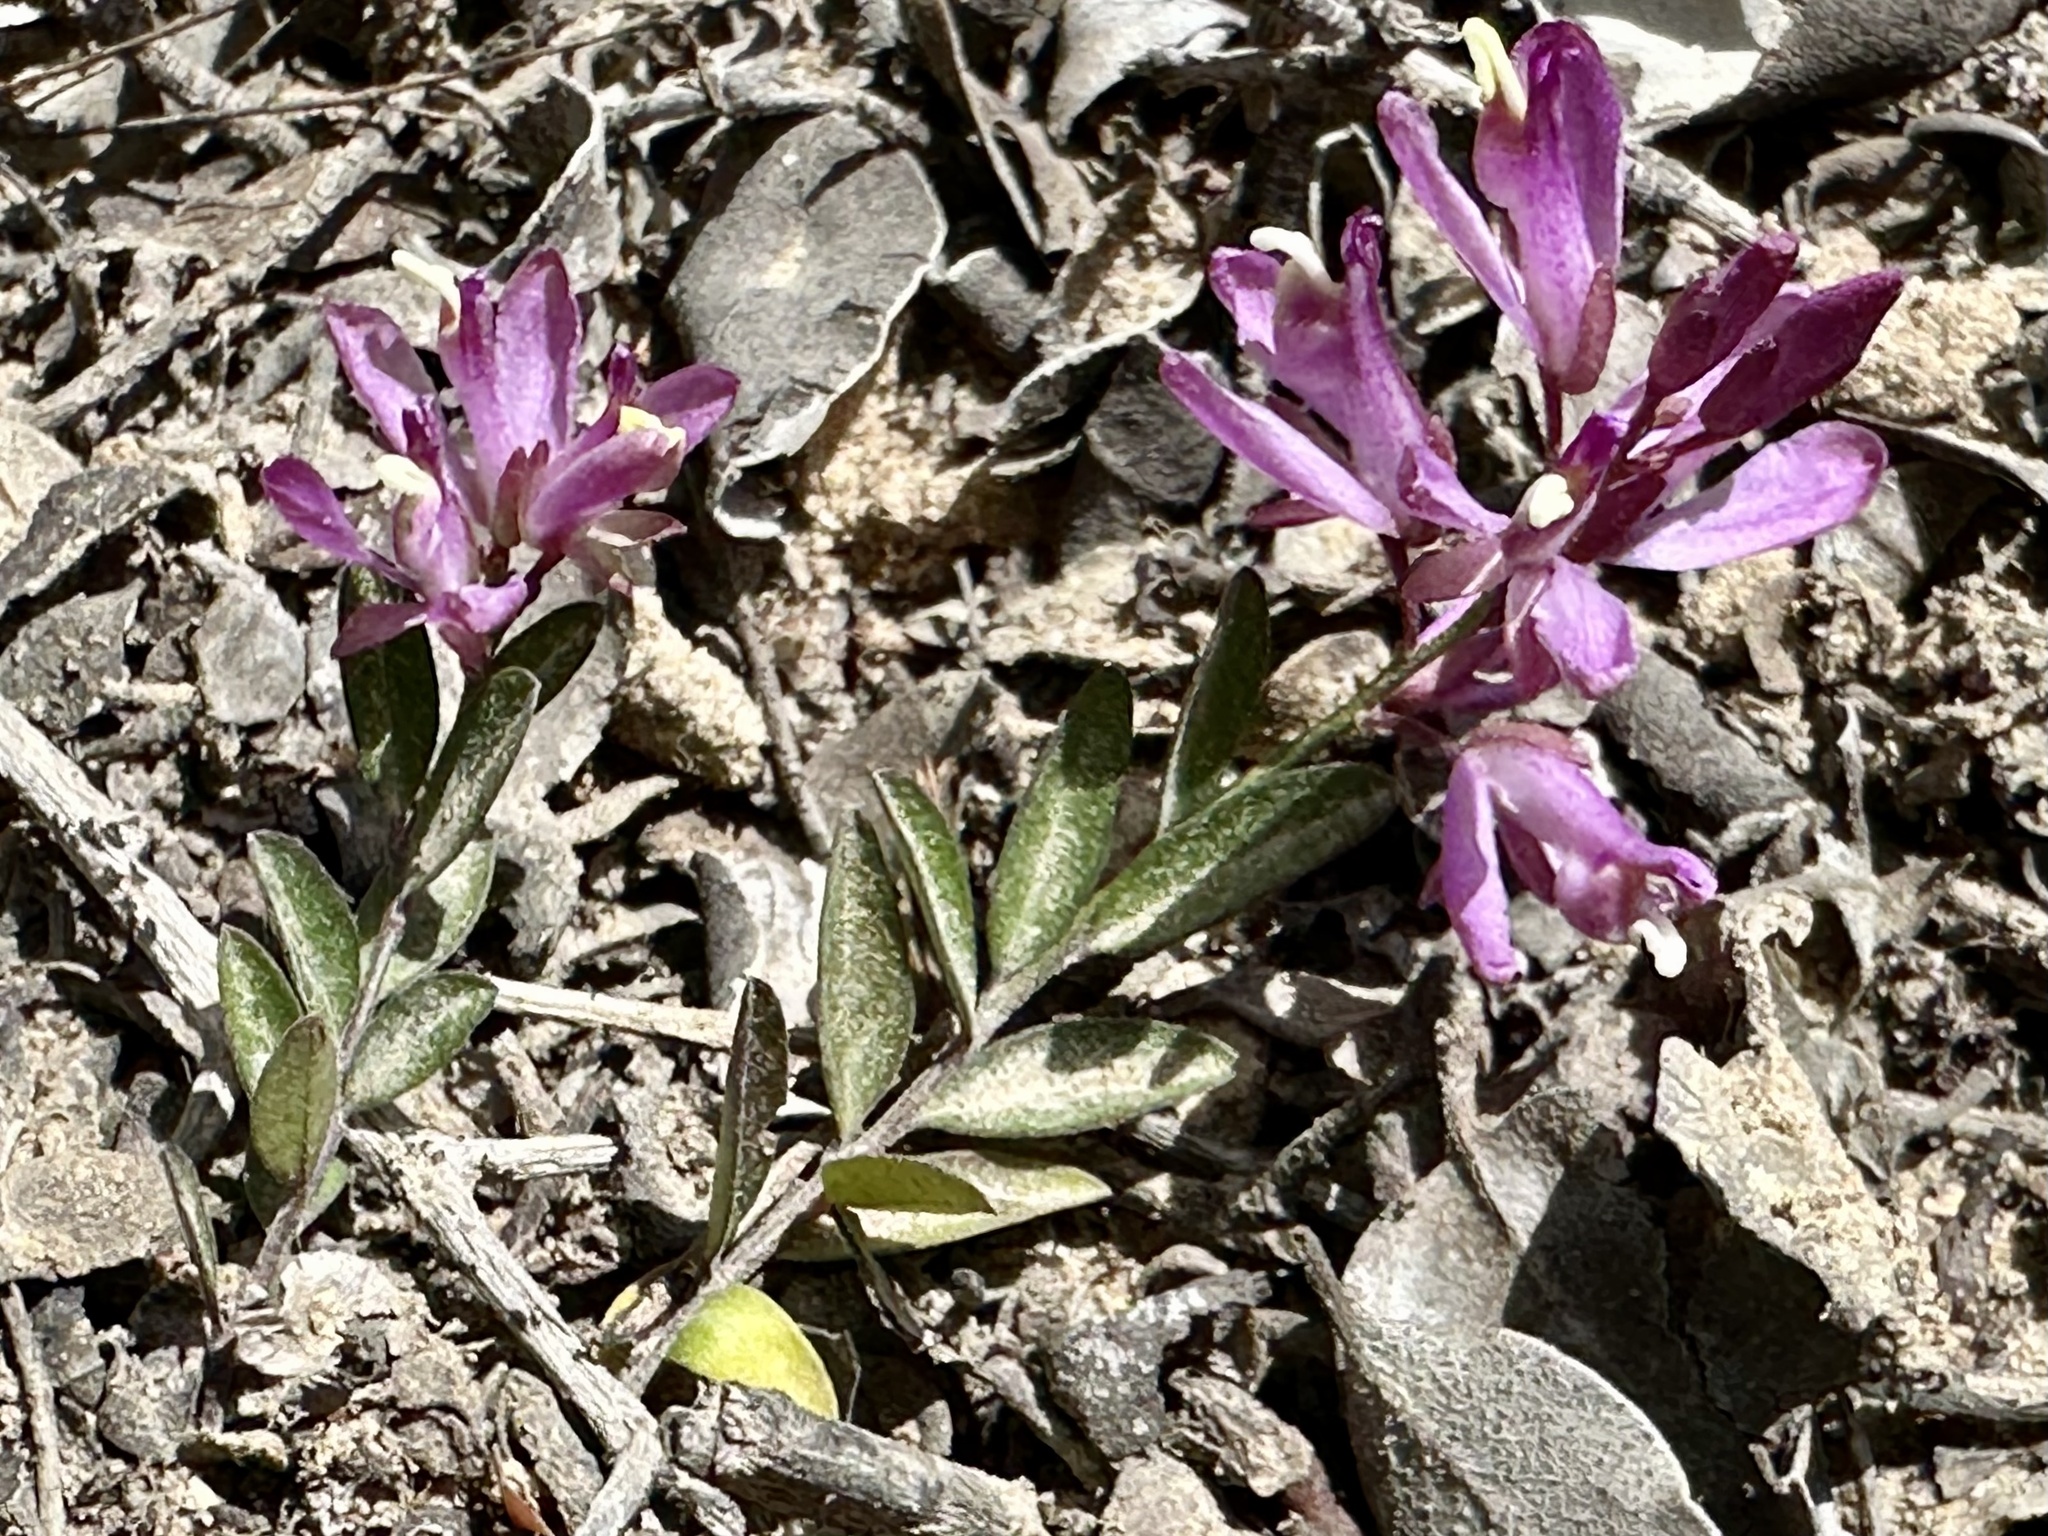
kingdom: Plantae
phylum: Tracheophyta
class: Magnoliopsida
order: Fabales
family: Polygalaceae
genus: Rhinotropis
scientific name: Rhinotropis californica
